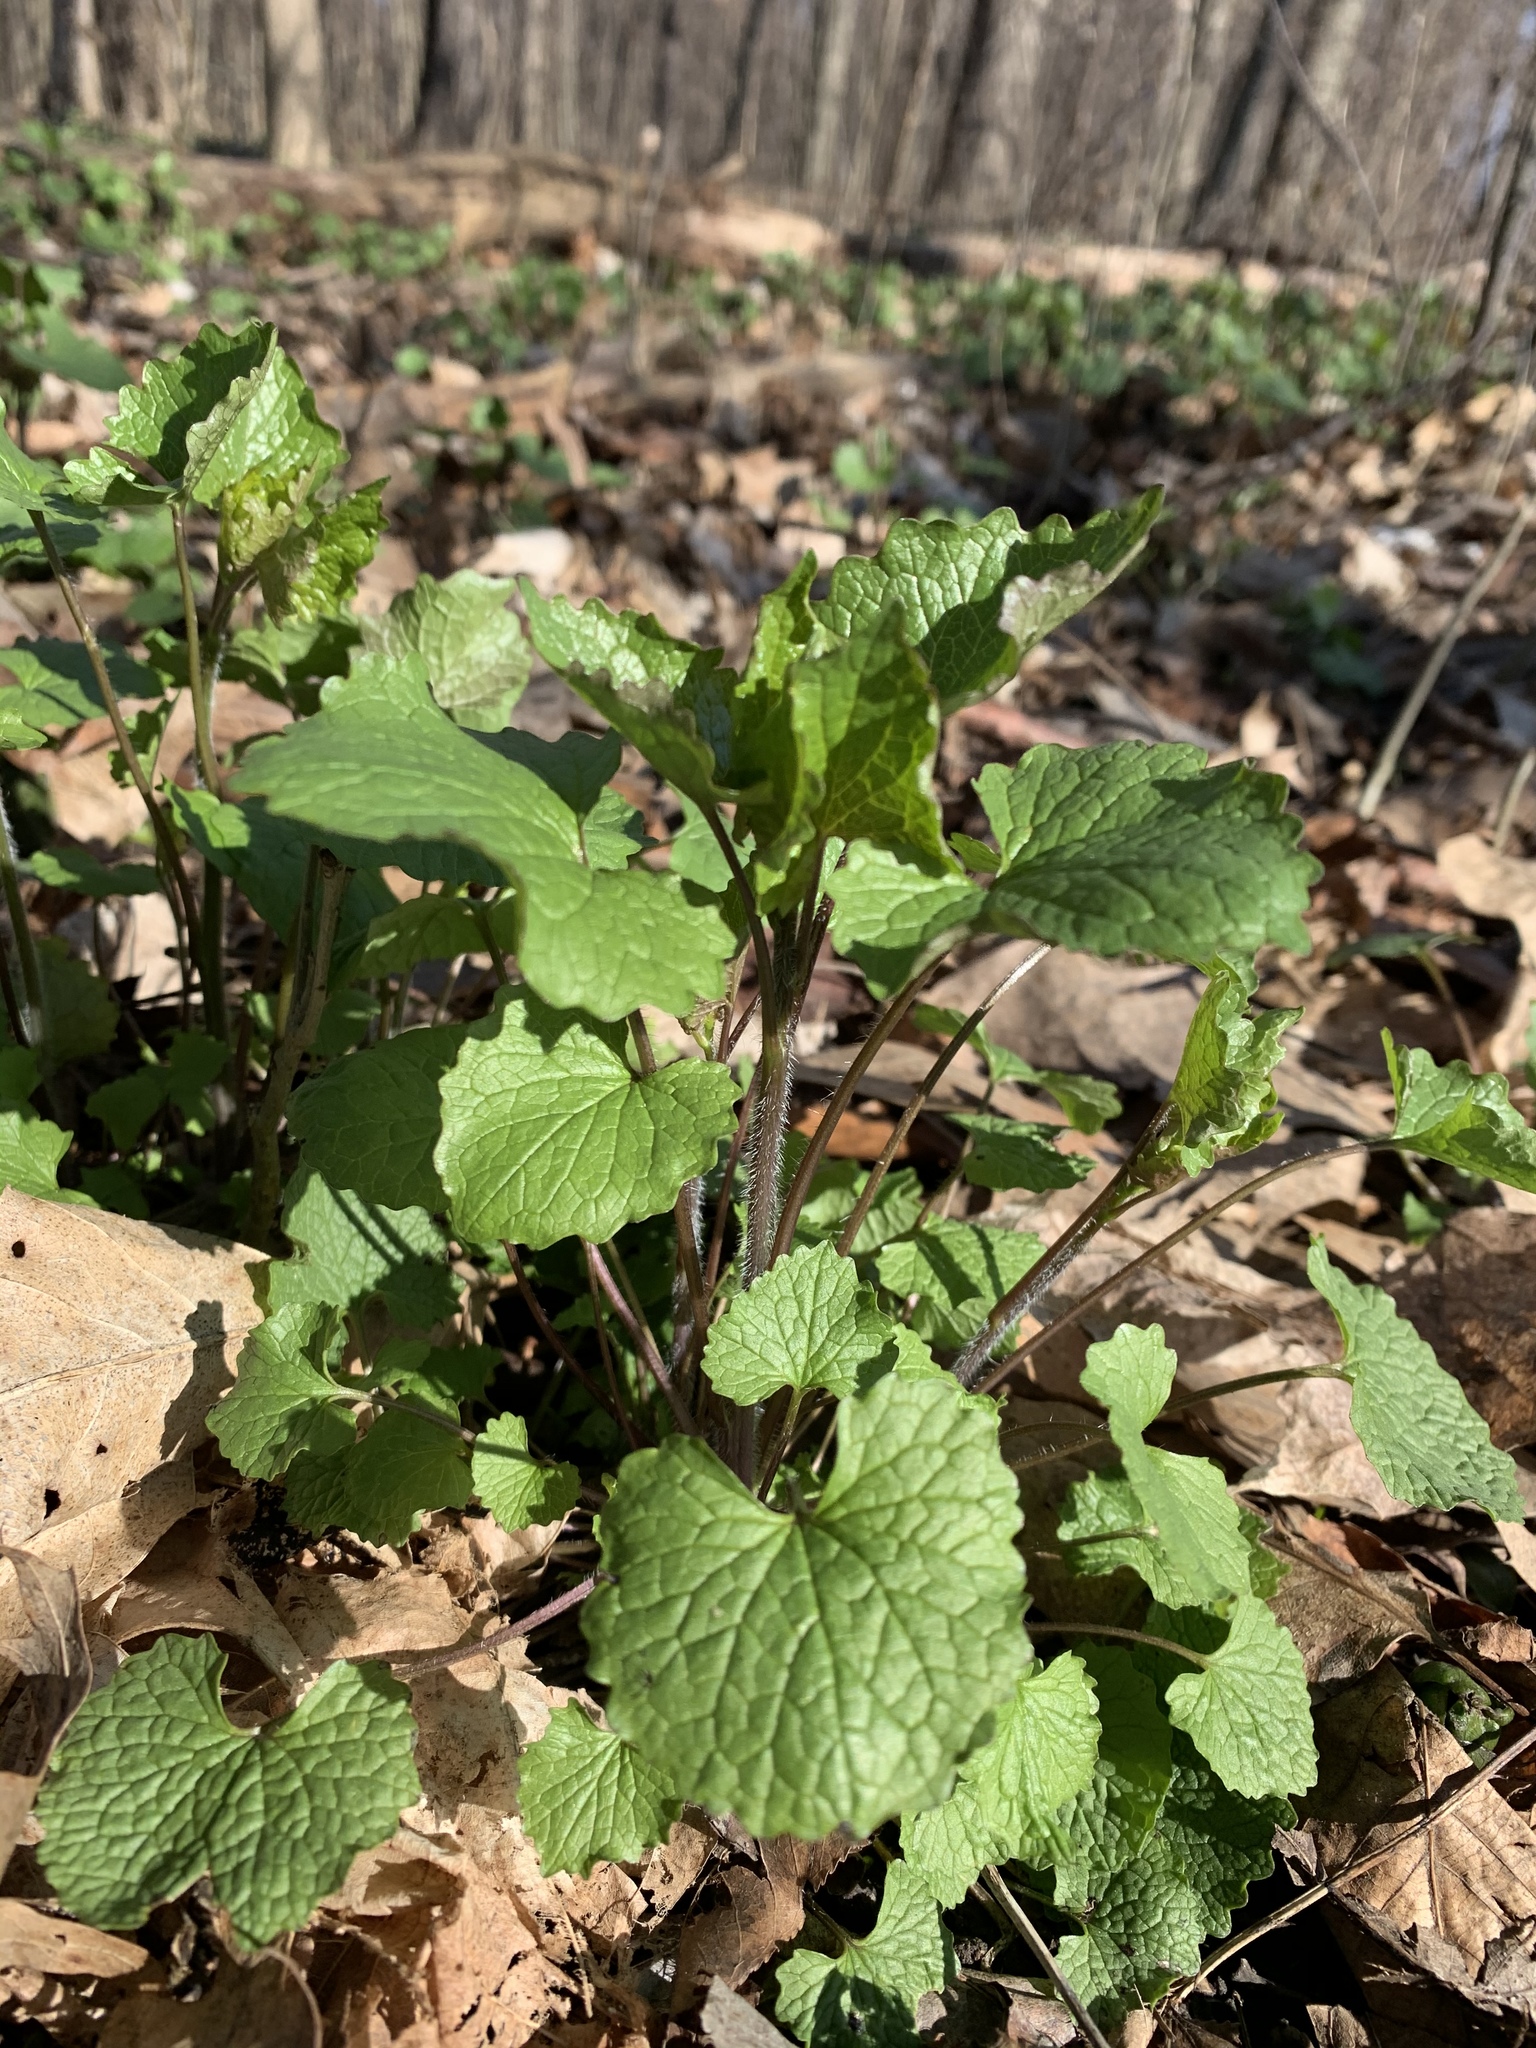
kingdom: Plantae
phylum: Tracheophyta
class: Magnoliopsida
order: Brassicales
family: Brassicaceae
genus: Alliaria
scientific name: Alliaria petiolata
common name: Garlic mustard
